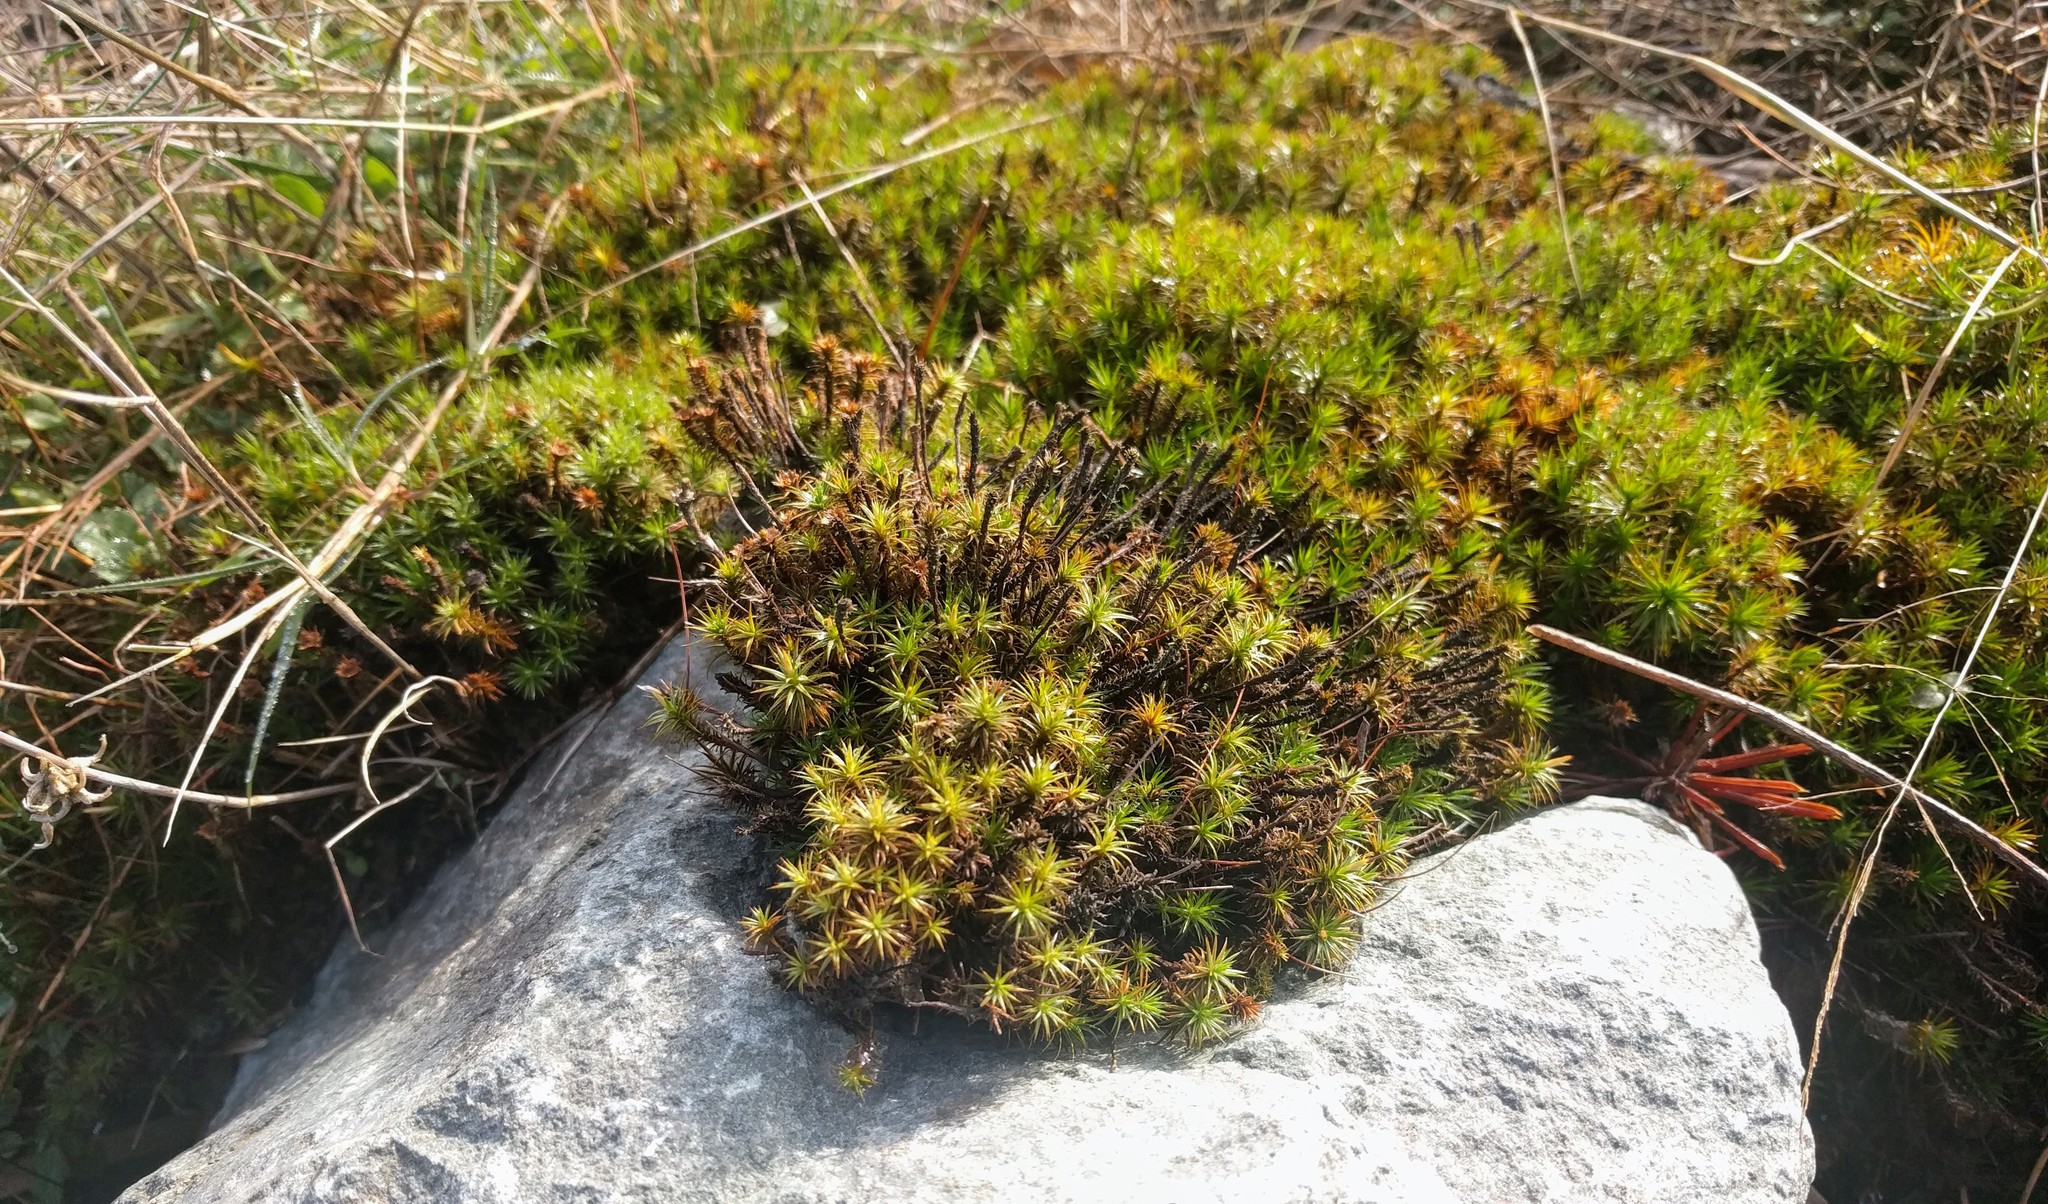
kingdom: Plantae
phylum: Bryophyta
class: Polytrichopsida
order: Polytrichales
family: Polytrichaceae
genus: Polytrichum
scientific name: Polytrichum juniperinum
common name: Juniper haircap moss
